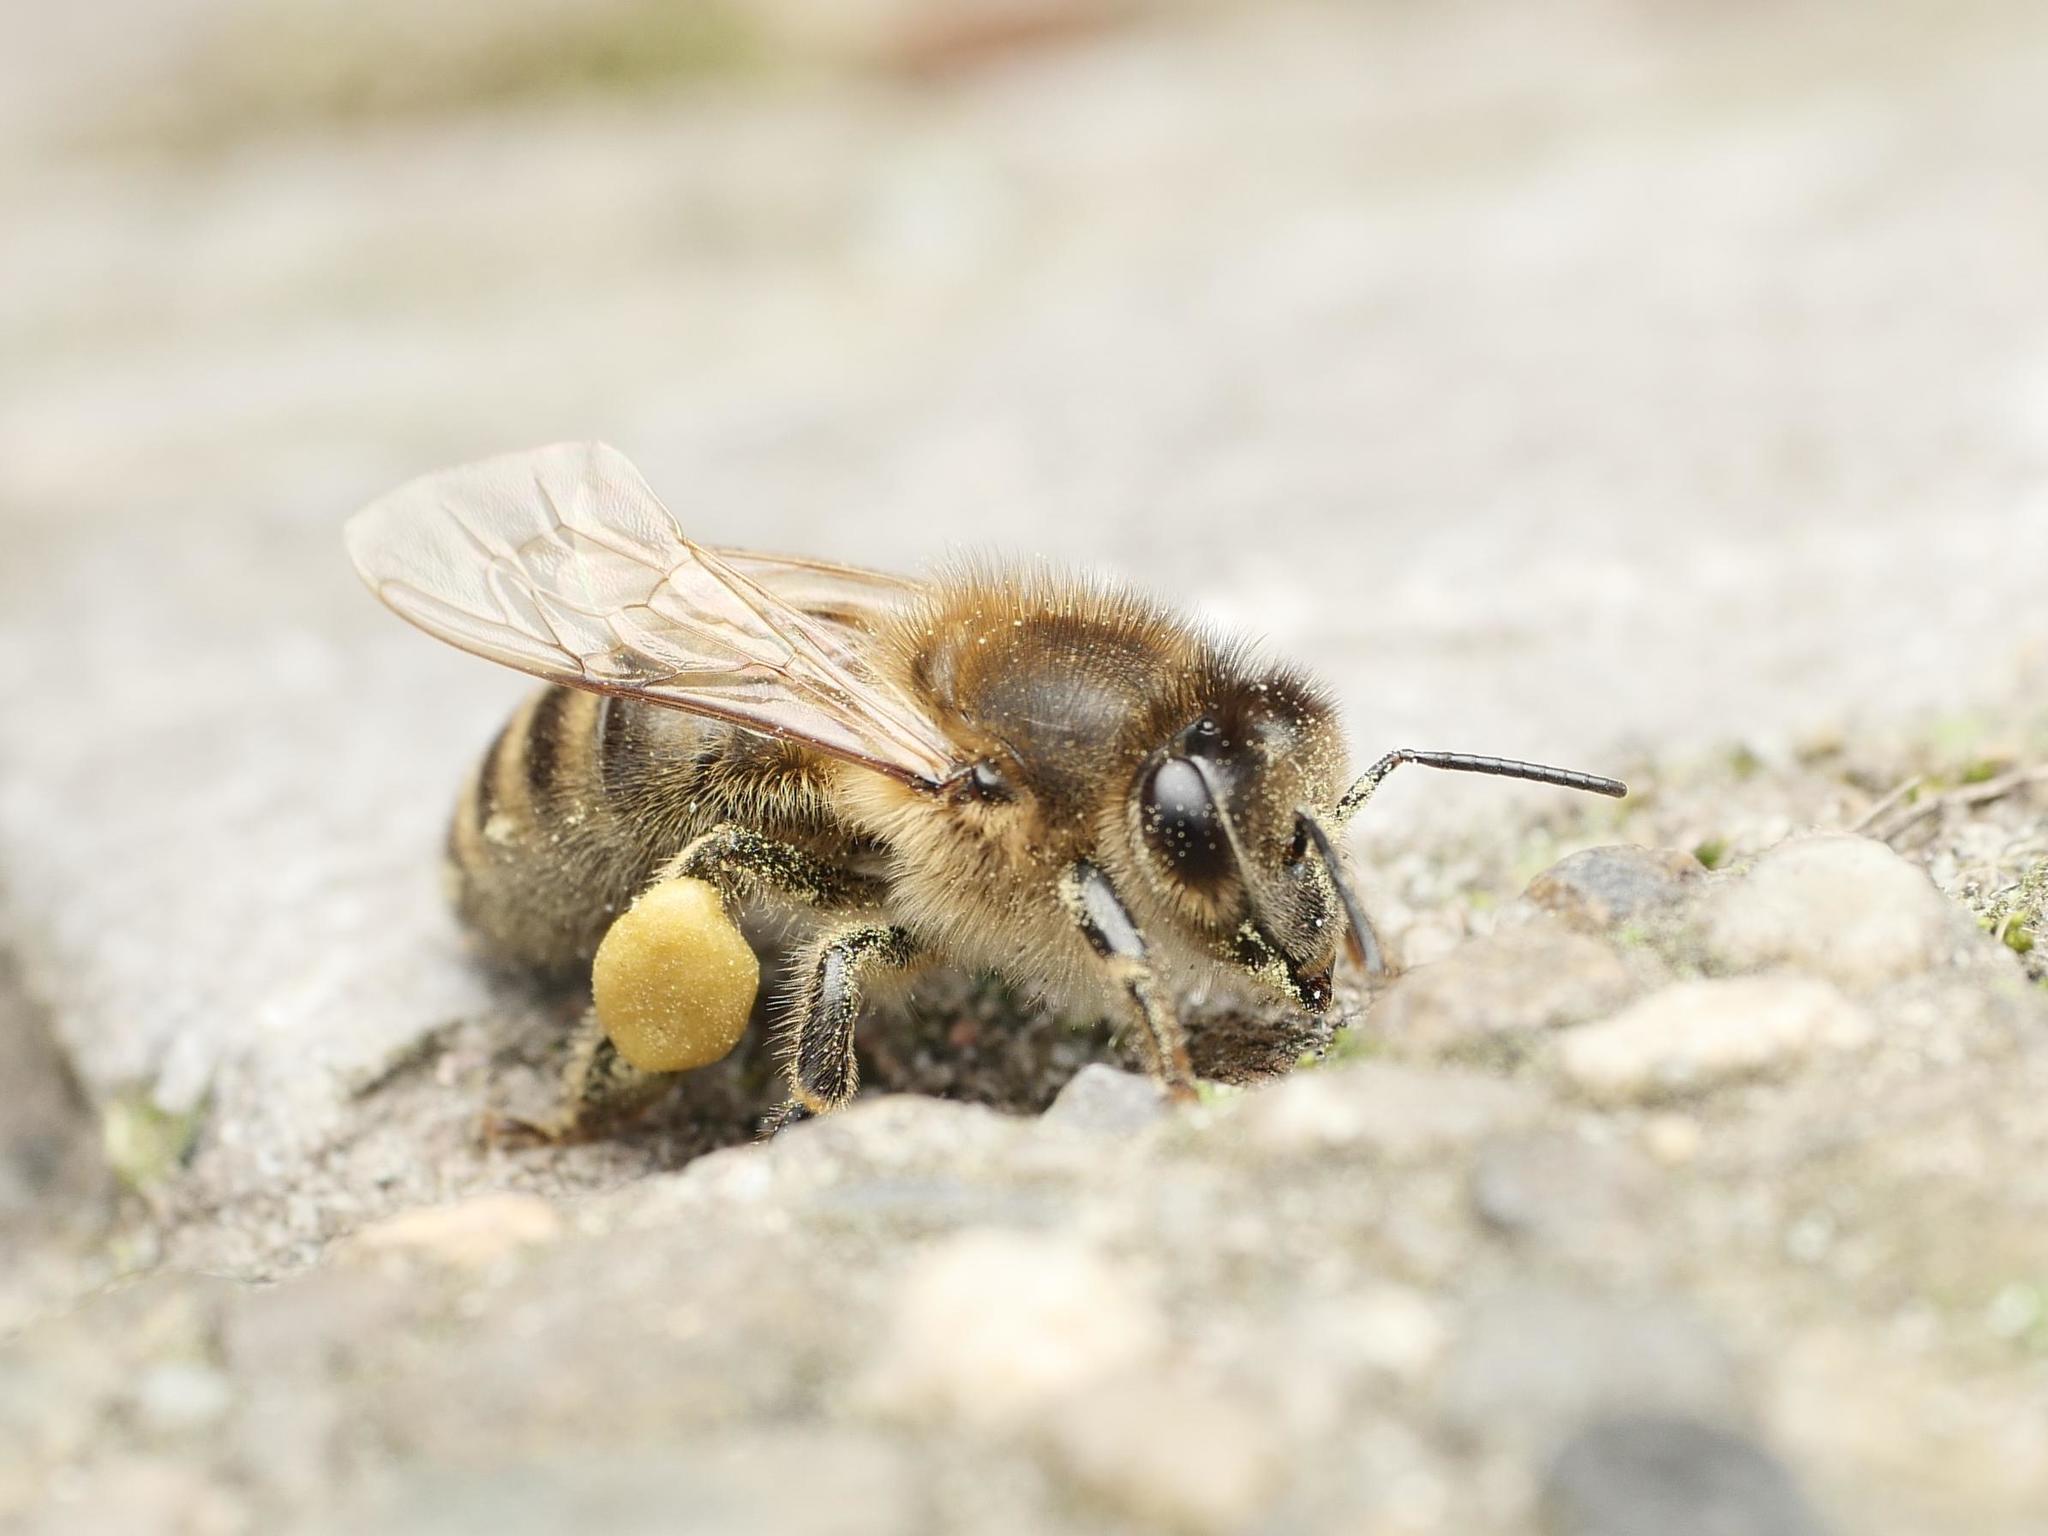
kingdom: Animalia
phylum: Arthropoda
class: Insecta
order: Hymenoptera
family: Apidae
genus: Apis
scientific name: Apis mellifera
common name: Honey bee
